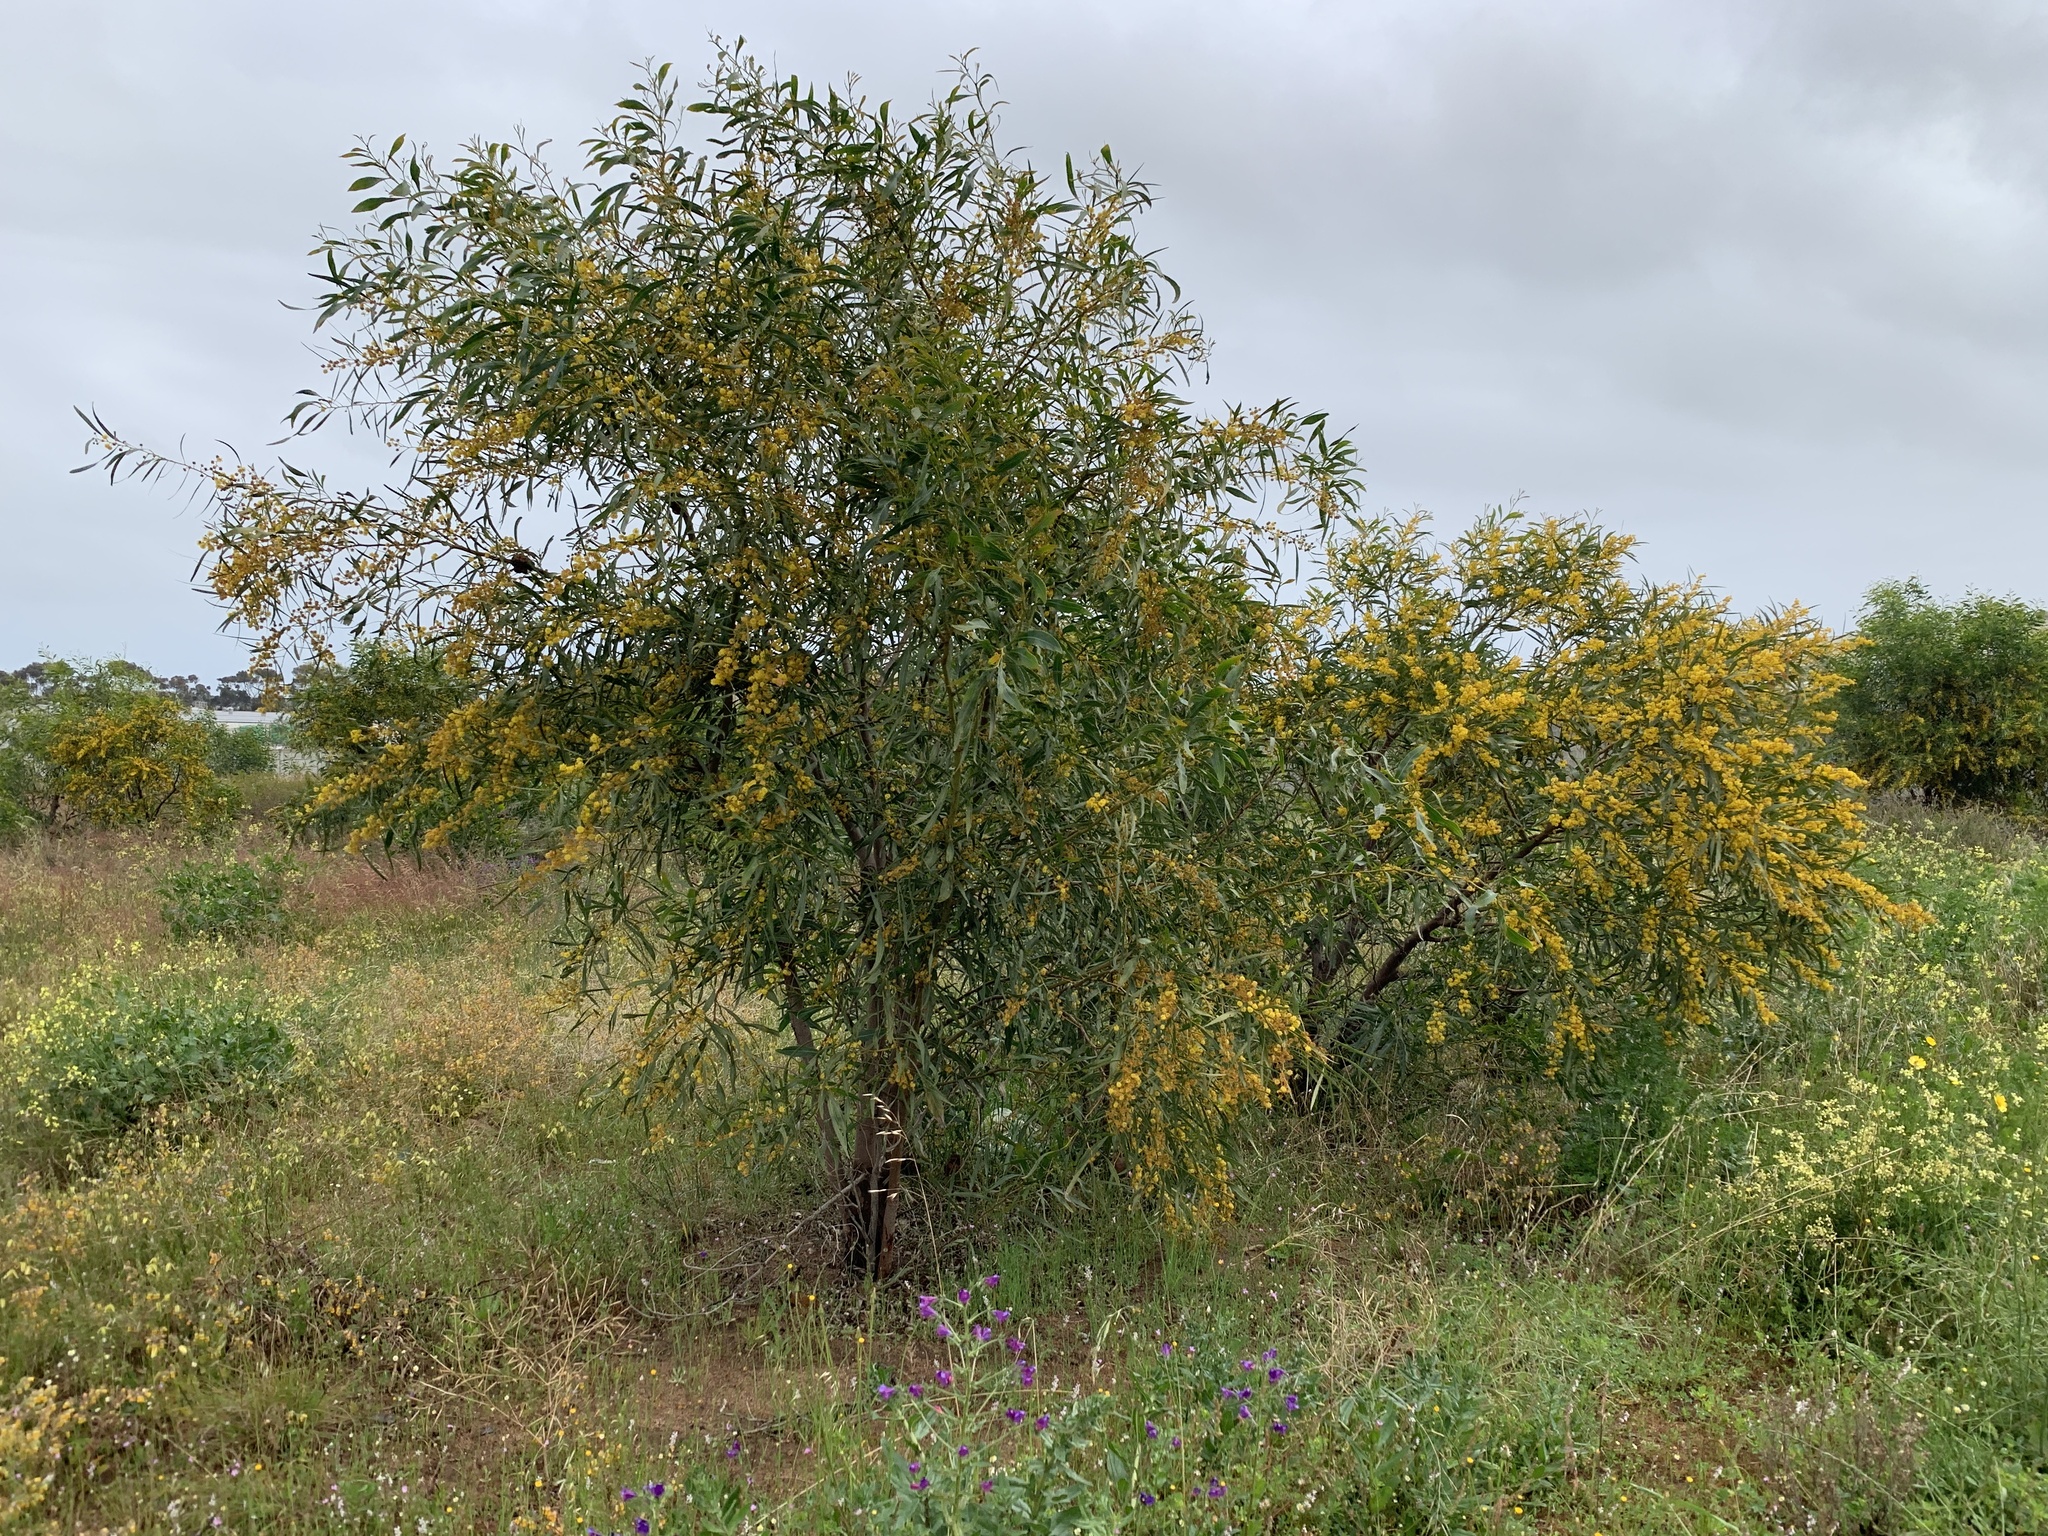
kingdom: Plantae
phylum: Tracheophyta
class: Magnoliopsida
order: Fabales
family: Fabaceae
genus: Acacia
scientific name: Acacia saligna
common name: Orange wattle
